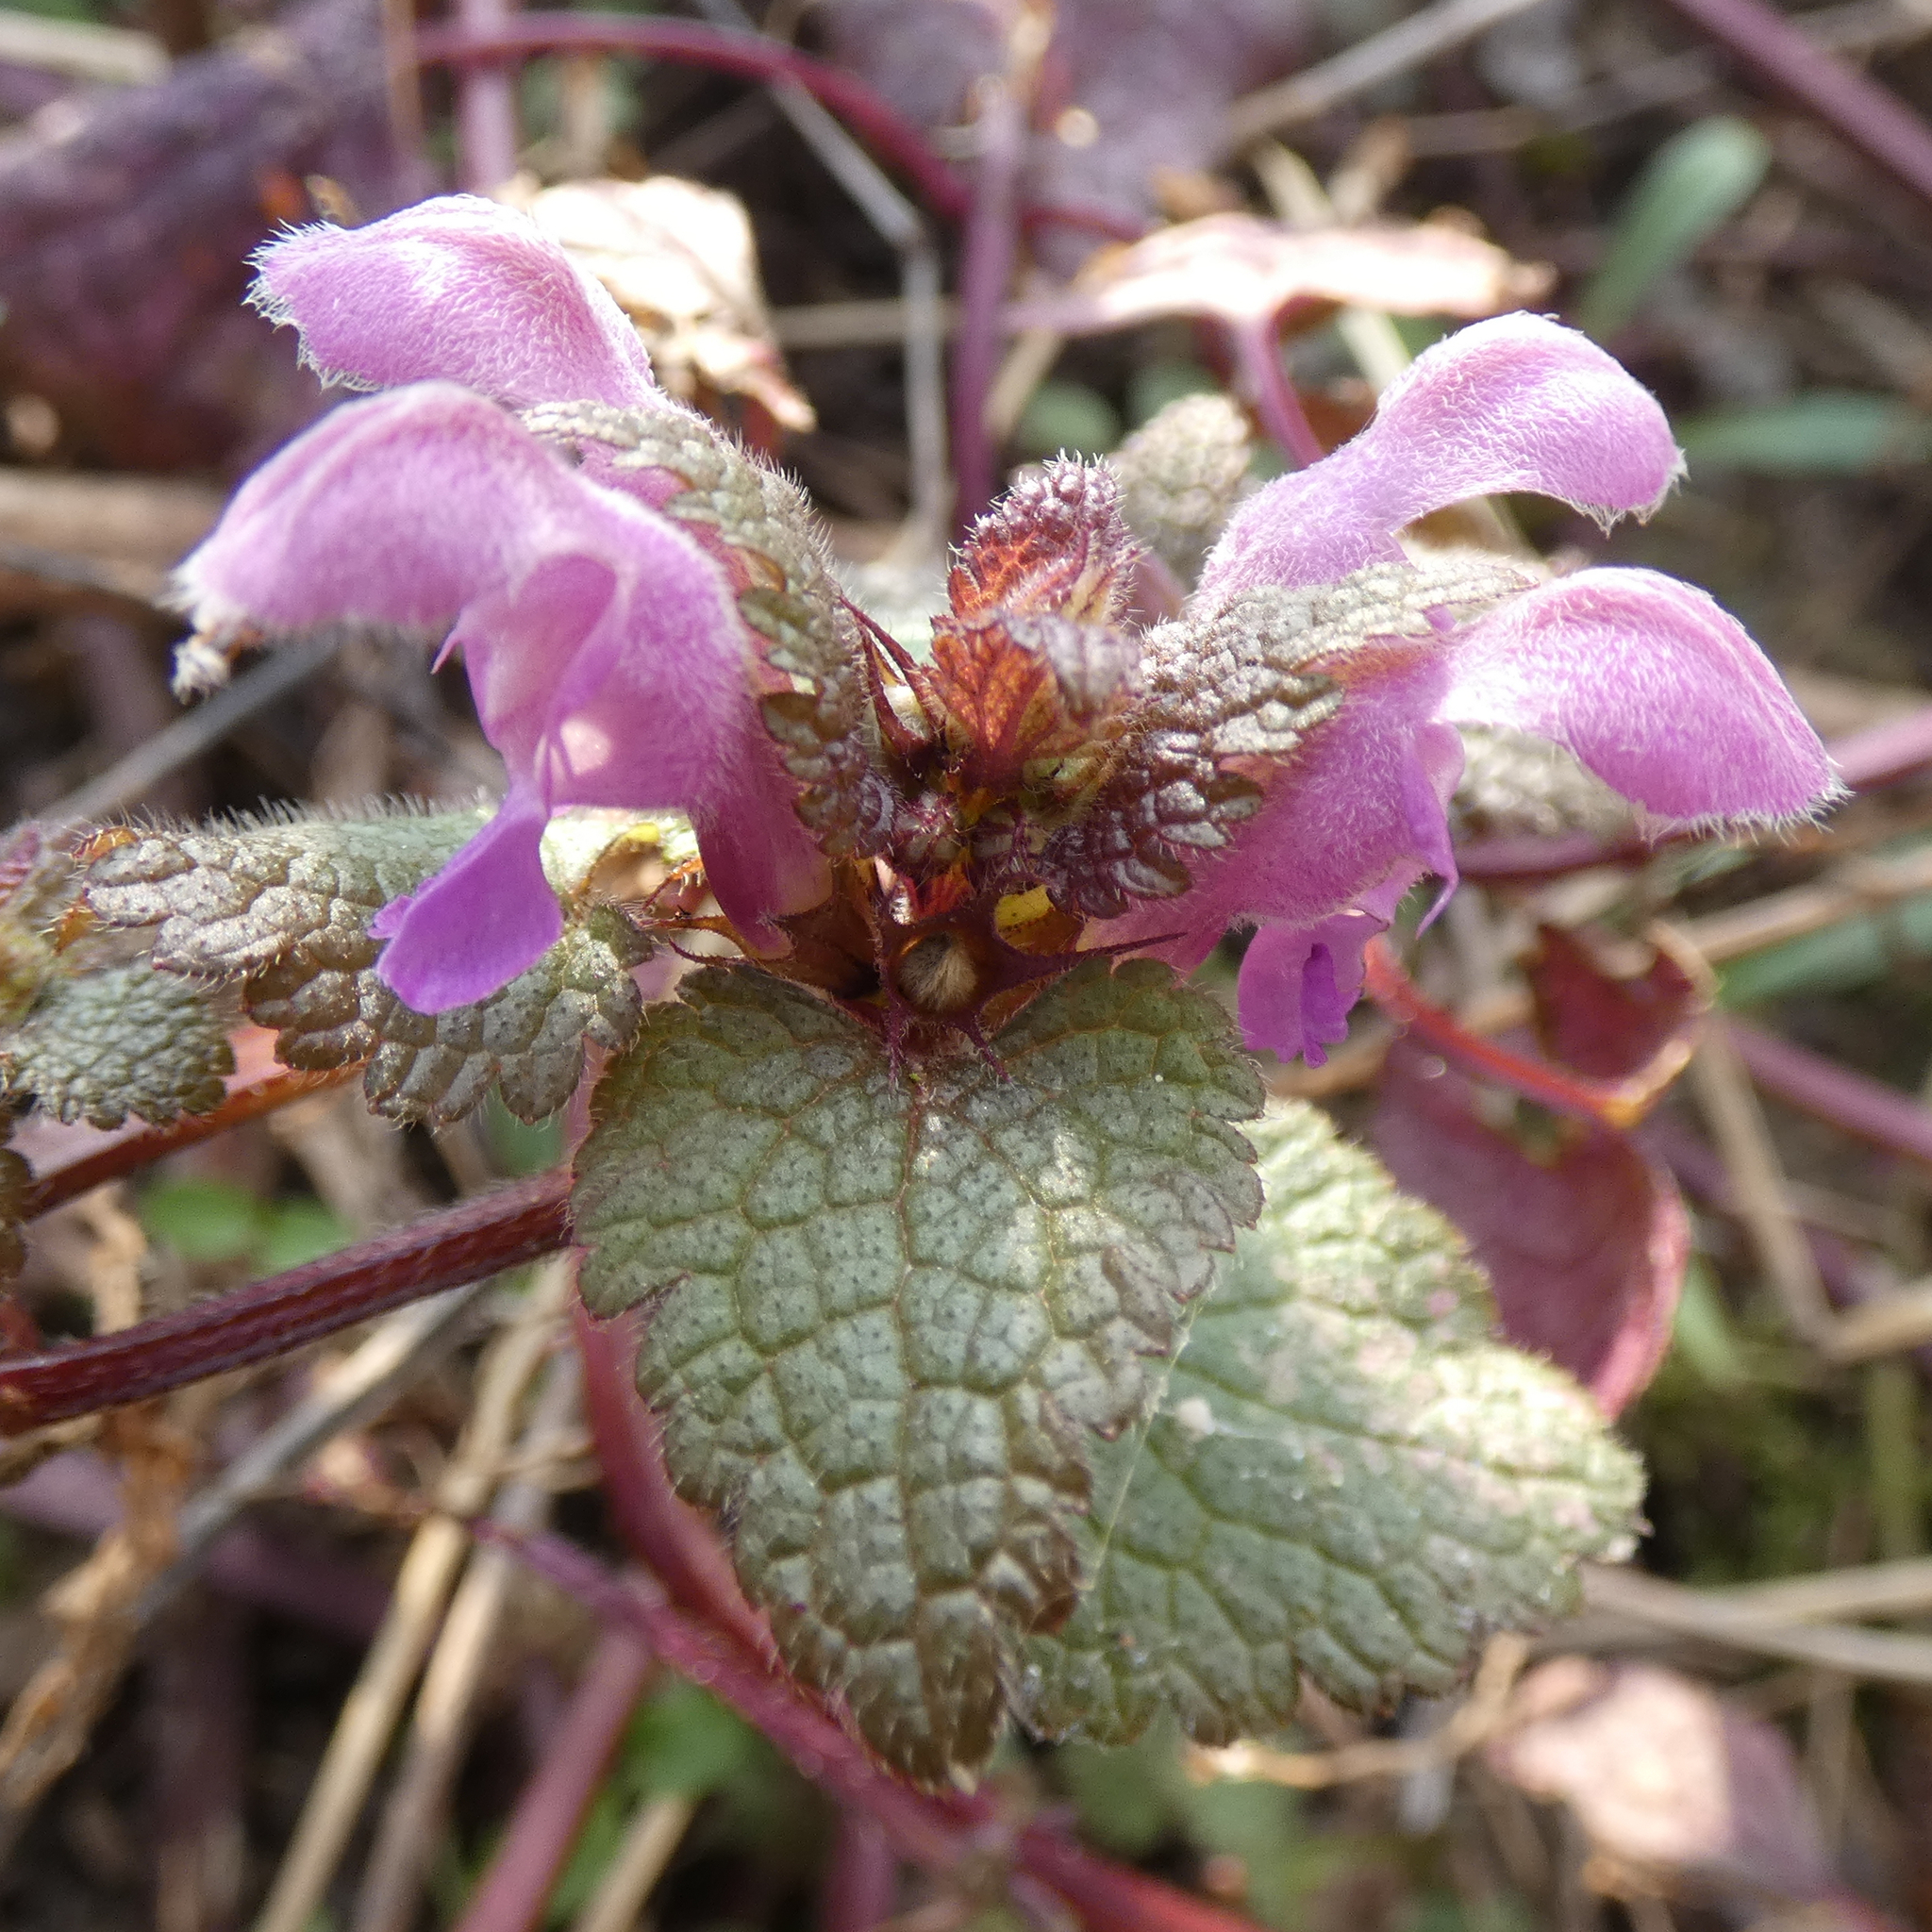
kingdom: Plantae
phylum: Tracheophyta
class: Magnoliopsida
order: Lamiales
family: Lamiaceae
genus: Lamium
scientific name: Lamium maculatum
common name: Spotted dead-nettle
